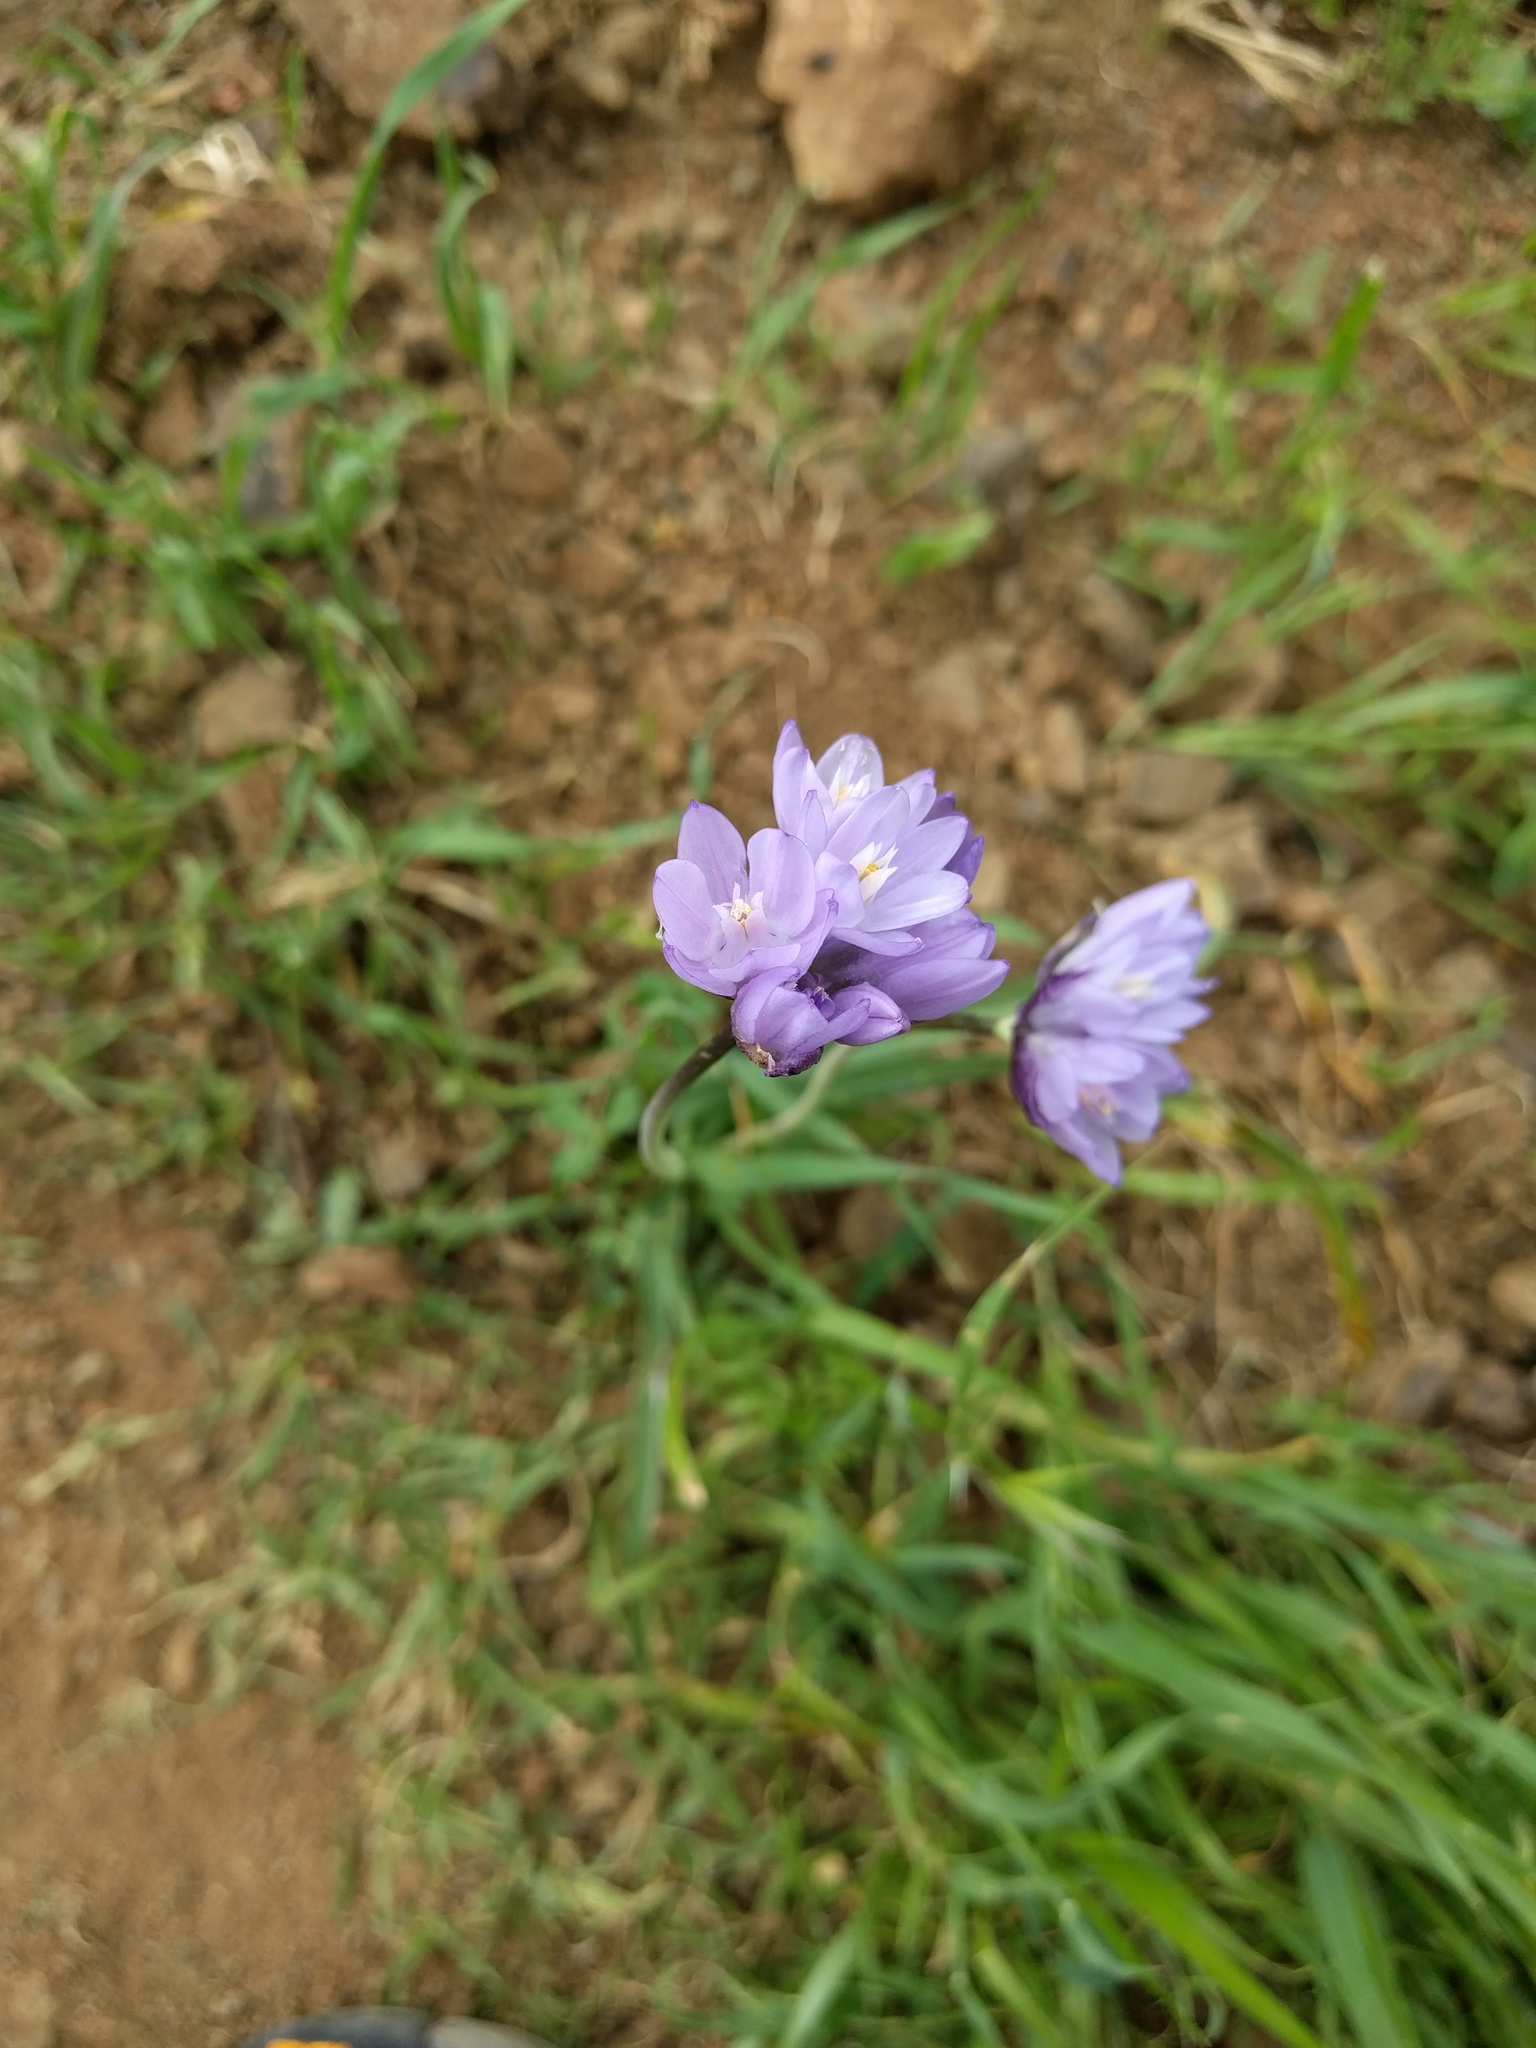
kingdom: Plantae
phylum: Tracheophyta
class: Liliopsida
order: Asparagales
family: Asparagaceae
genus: Dipterostemon
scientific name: Dipterostemon capitatus
